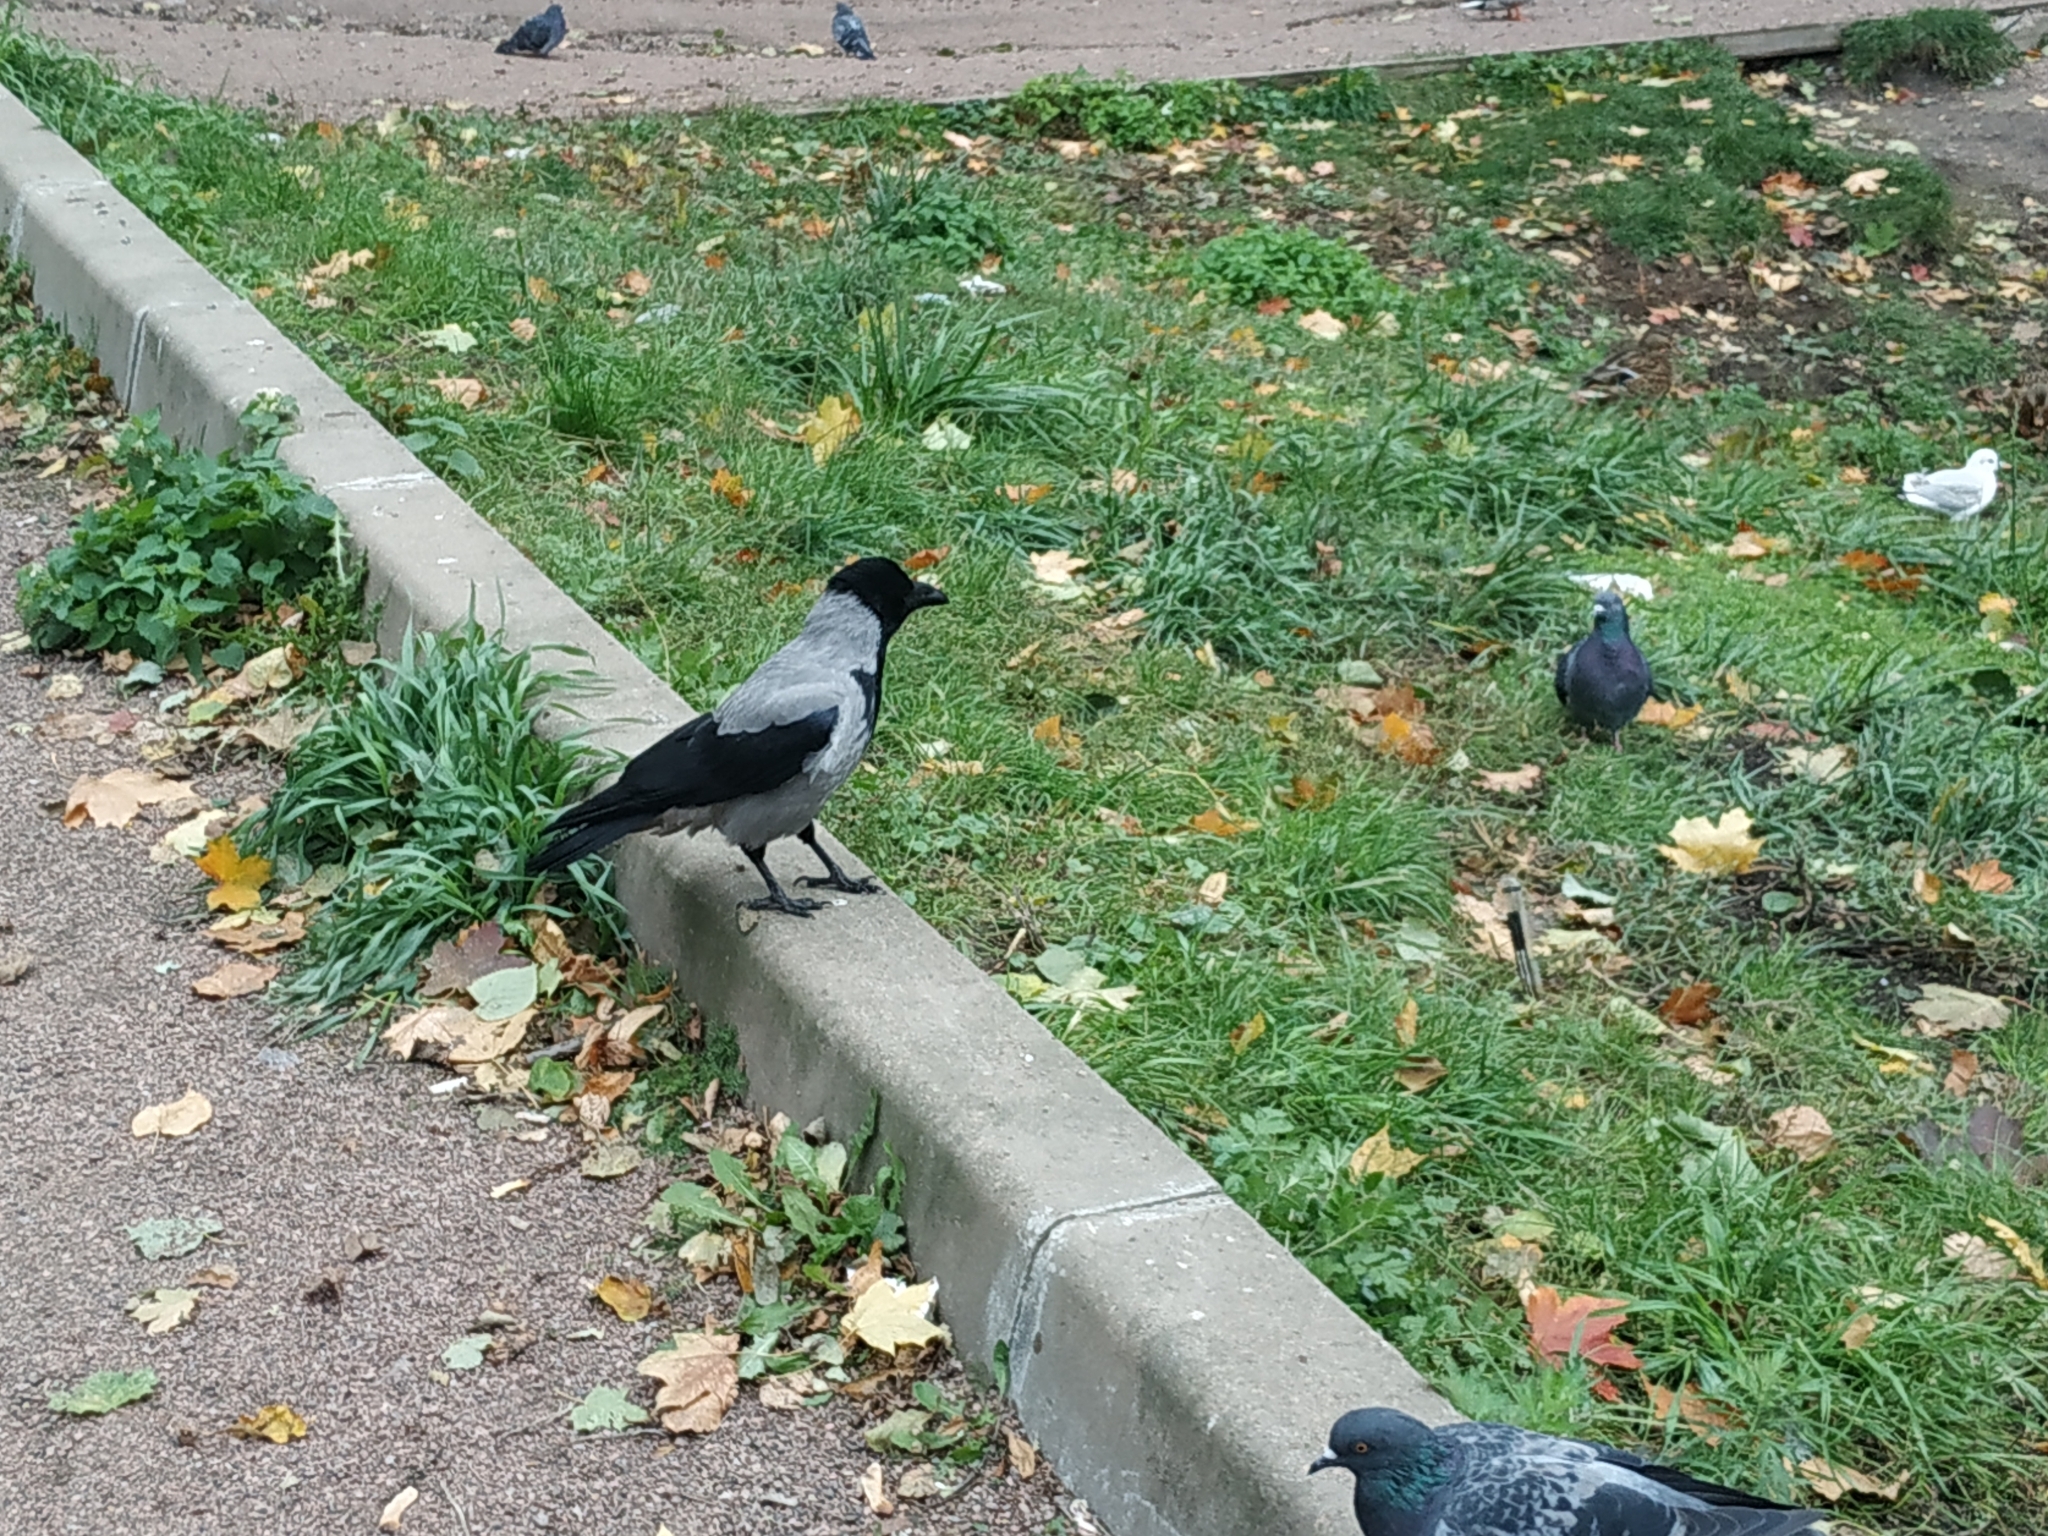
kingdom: Animalia
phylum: Chordata
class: Aves
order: Passeriformes
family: Corvidae
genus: Corvus
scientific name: Corvus cornix
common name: Hooded crow
